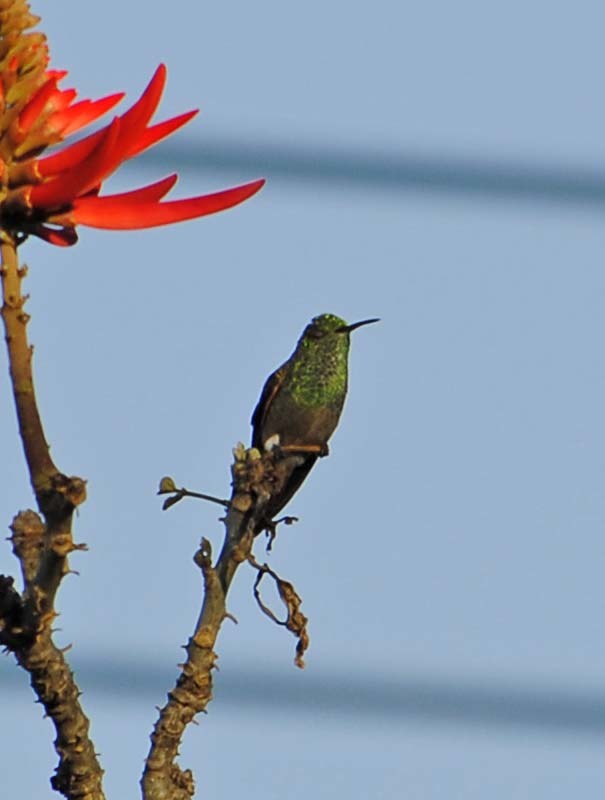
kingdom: Animalia
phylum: Chordata
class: Aves
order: Apodiformes
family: Trochilidae
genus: Saucerottia
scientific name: Saucerottia beryllina
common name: Berylline hummingbird
